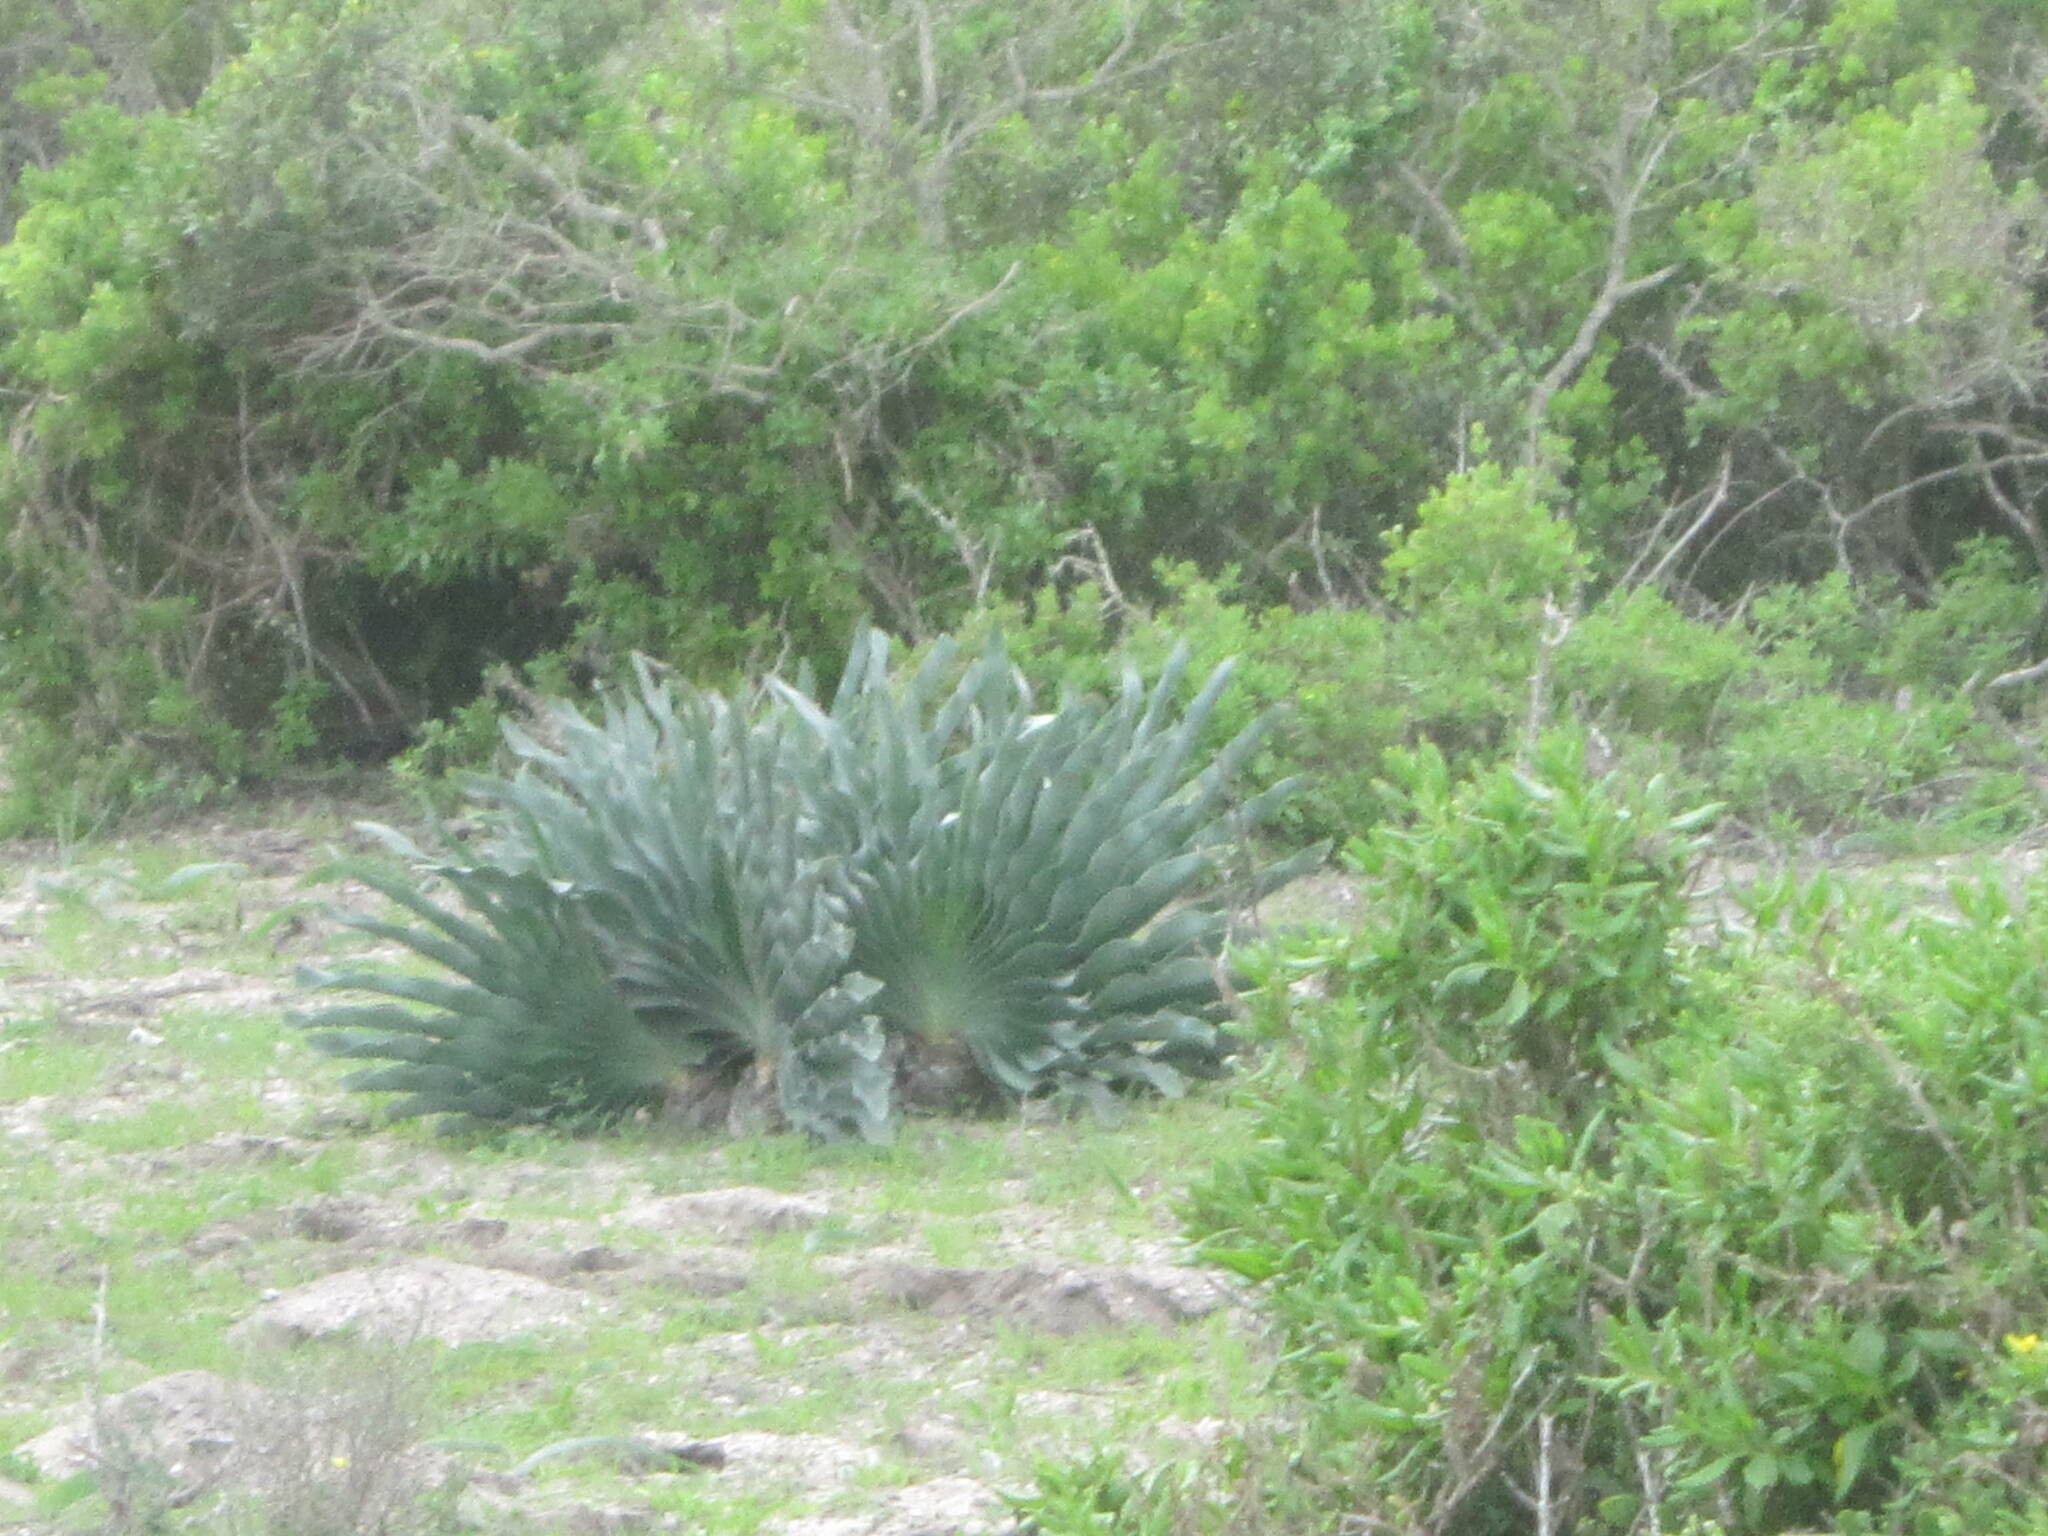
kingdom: Plantae
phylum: Tracheophyta
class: Liliopsida
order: Asparagales
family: Amaryllidaceae
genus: Boophone
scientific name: Boophone haemanthoides
